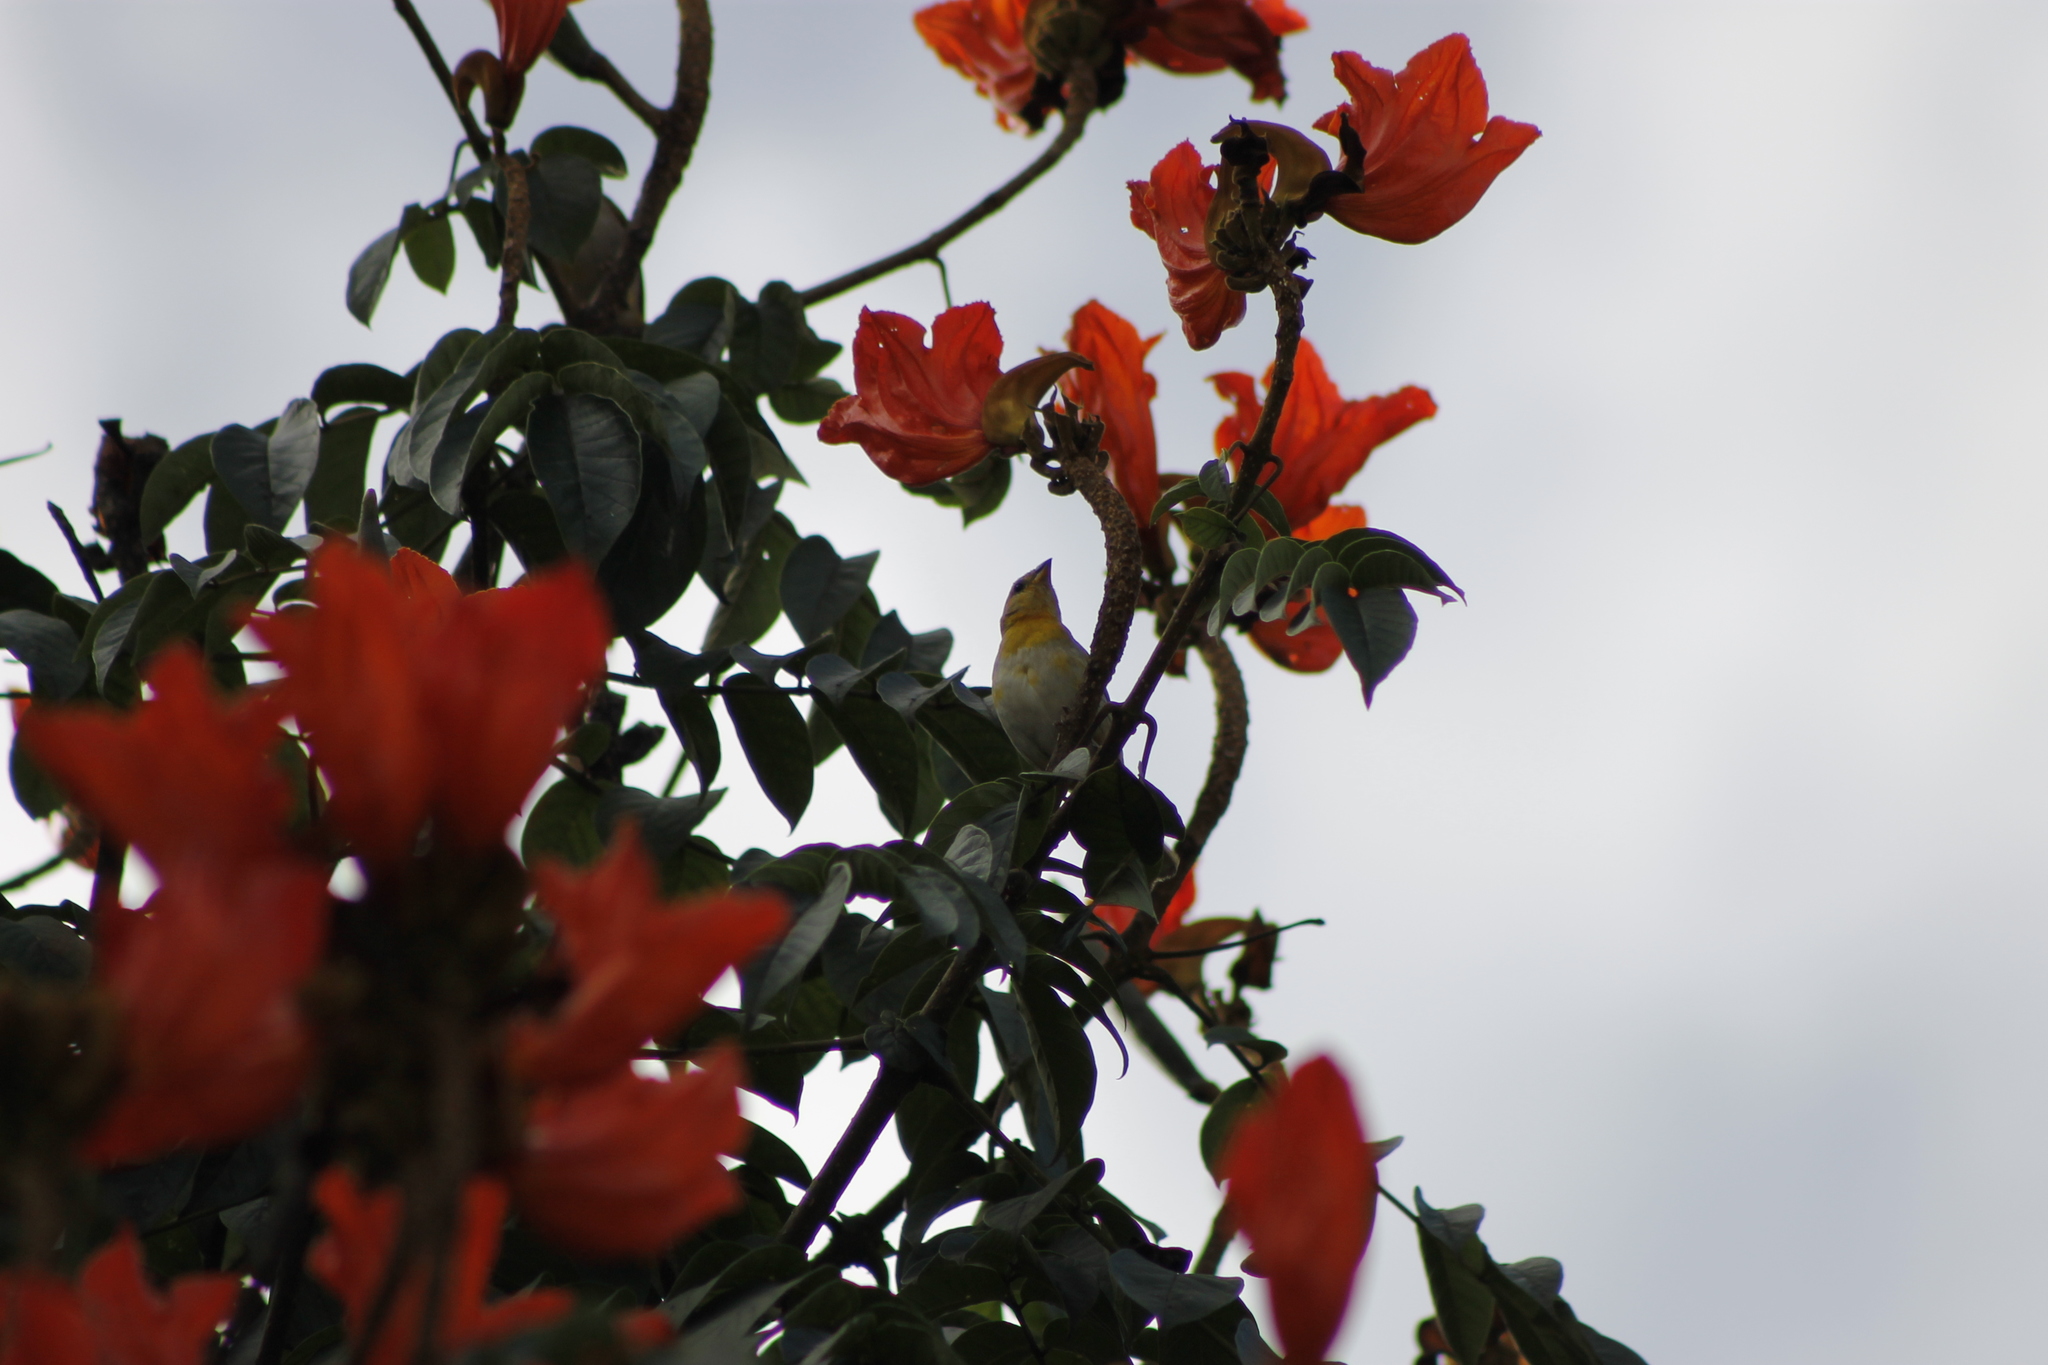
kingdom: Animalia
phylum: Chordata
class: Aves
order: Passeriformes
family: Thraupidae
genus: Sicalis
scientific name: Sicalis flaveola
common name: Saffron finch
